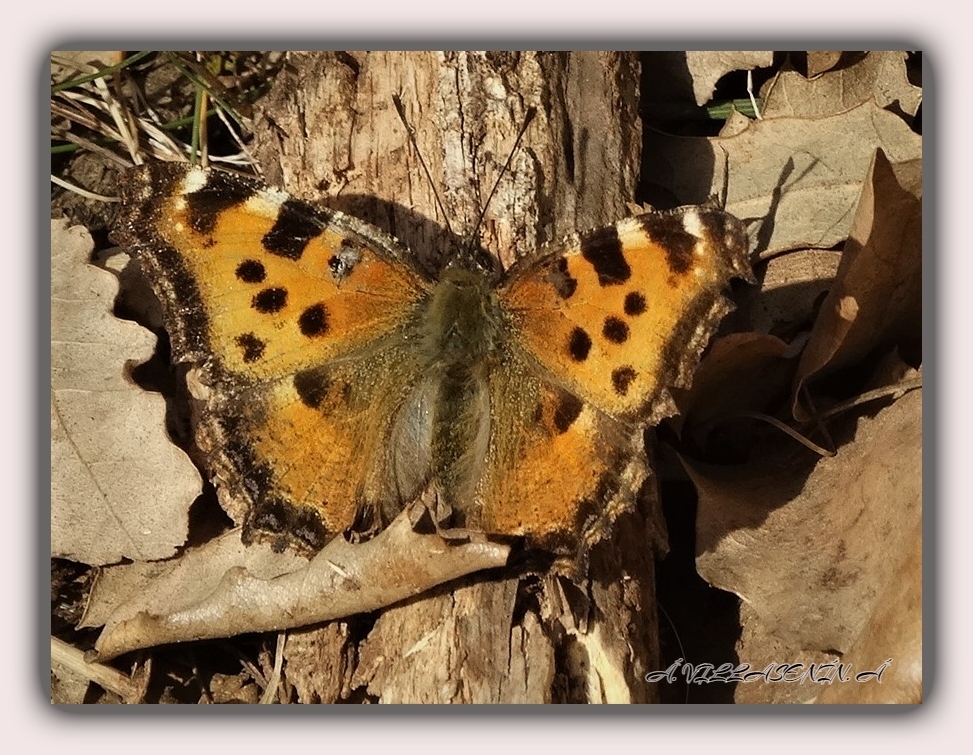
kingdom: Animalia
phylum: Arthropoda
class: Insecta
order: Lepidoptera
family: Nymphalidae
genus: Nymphalis
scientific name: Nymphalis polychloros
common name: Large tortoiseshell
